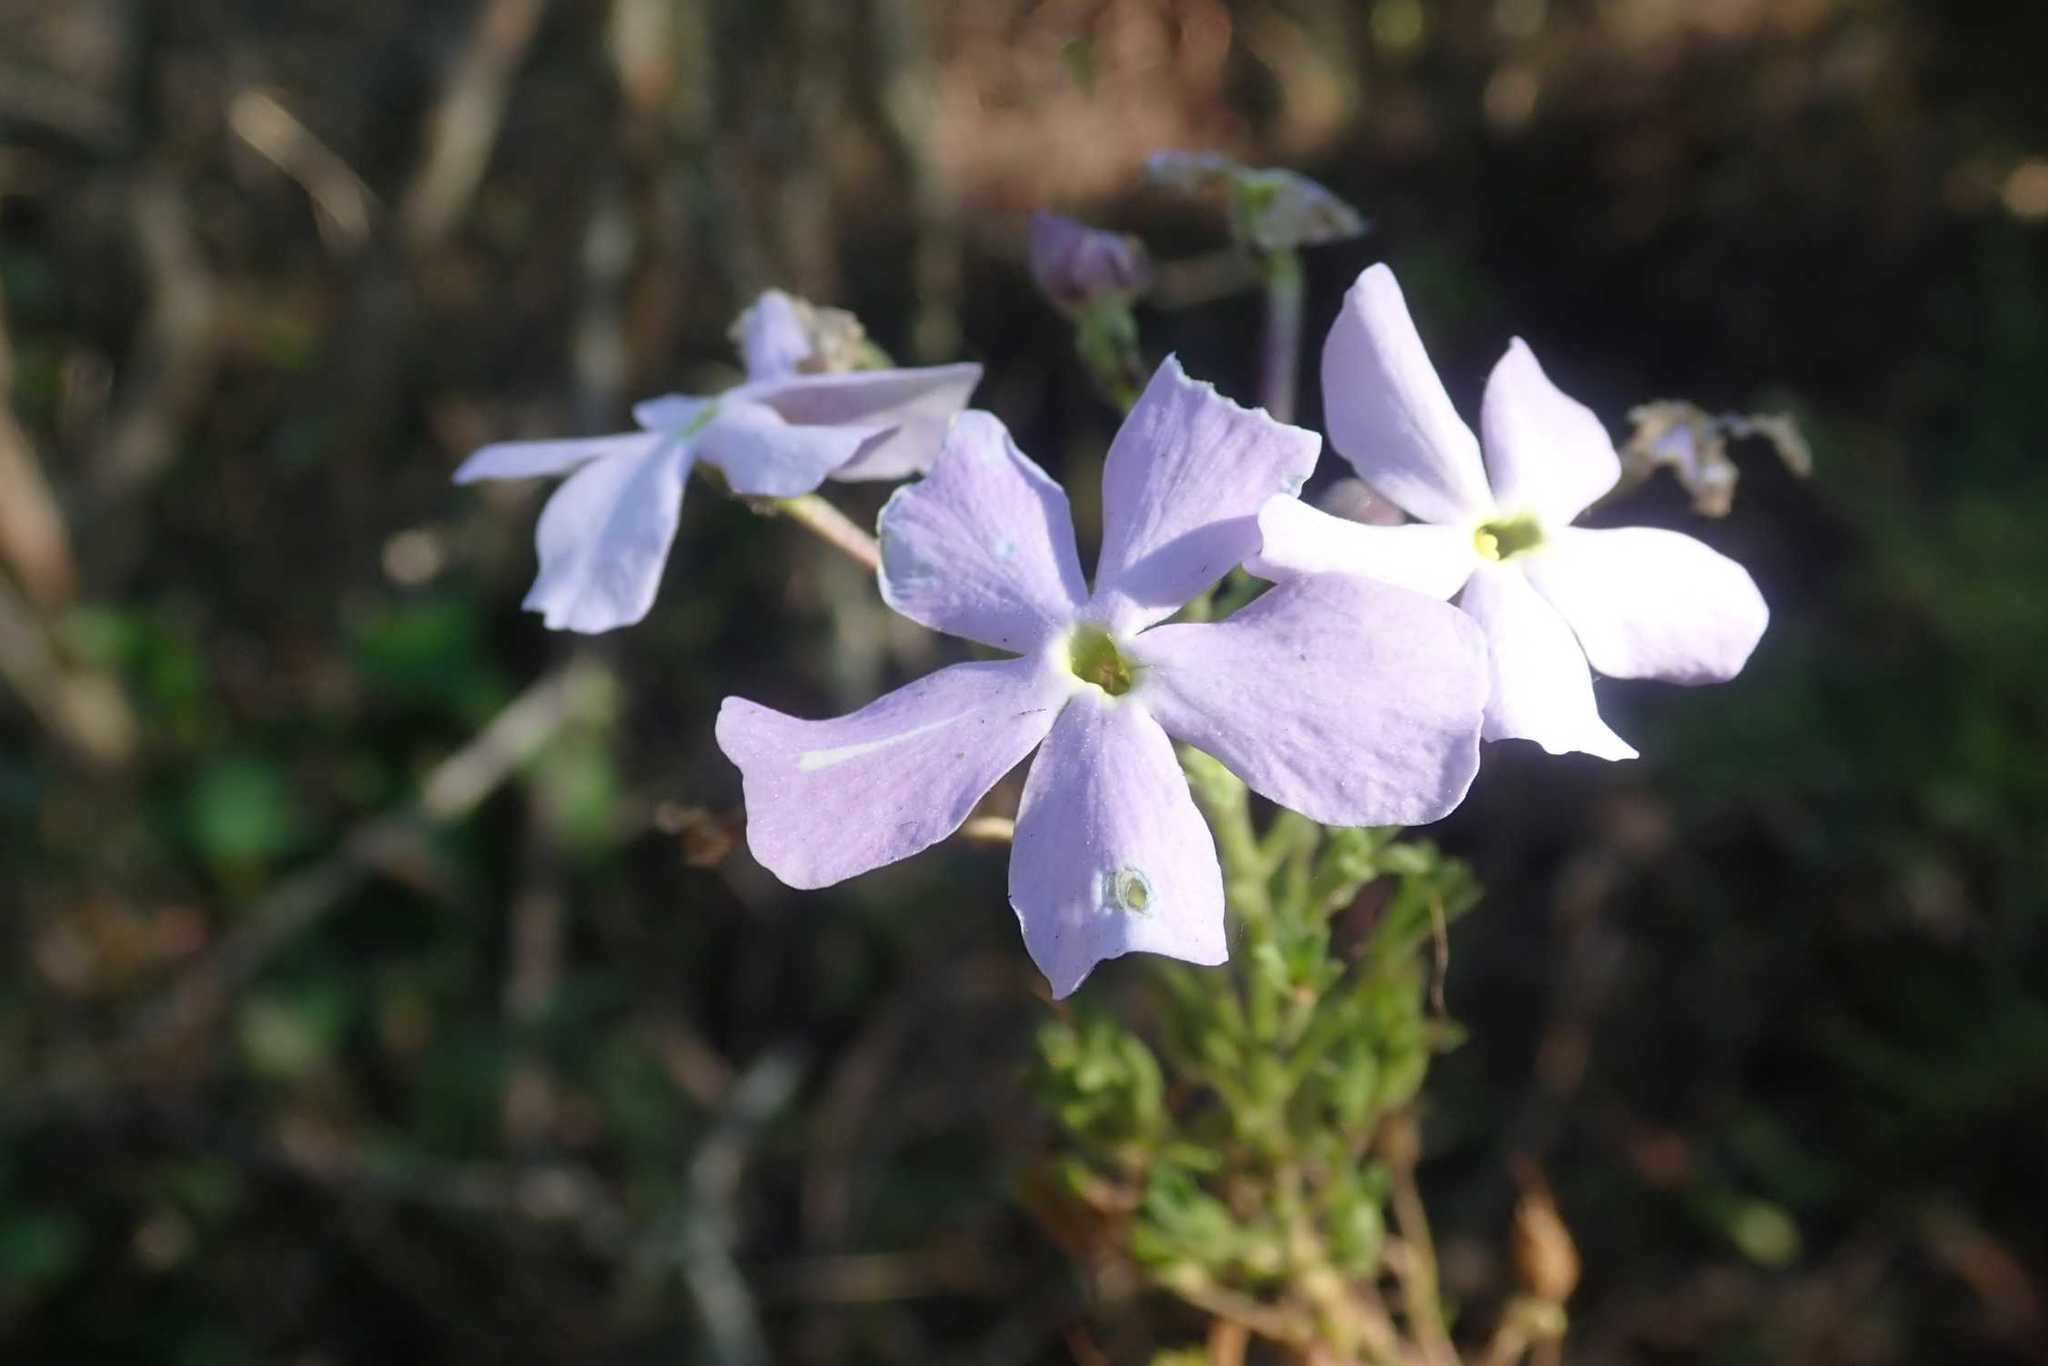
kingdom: Plantae
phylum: Tracheophyta
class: Magnoliopsida
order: Lamiales
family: Scrophulariaceae
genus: Jamesbrittenia
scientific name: Jamesbrittenia grandiflora
